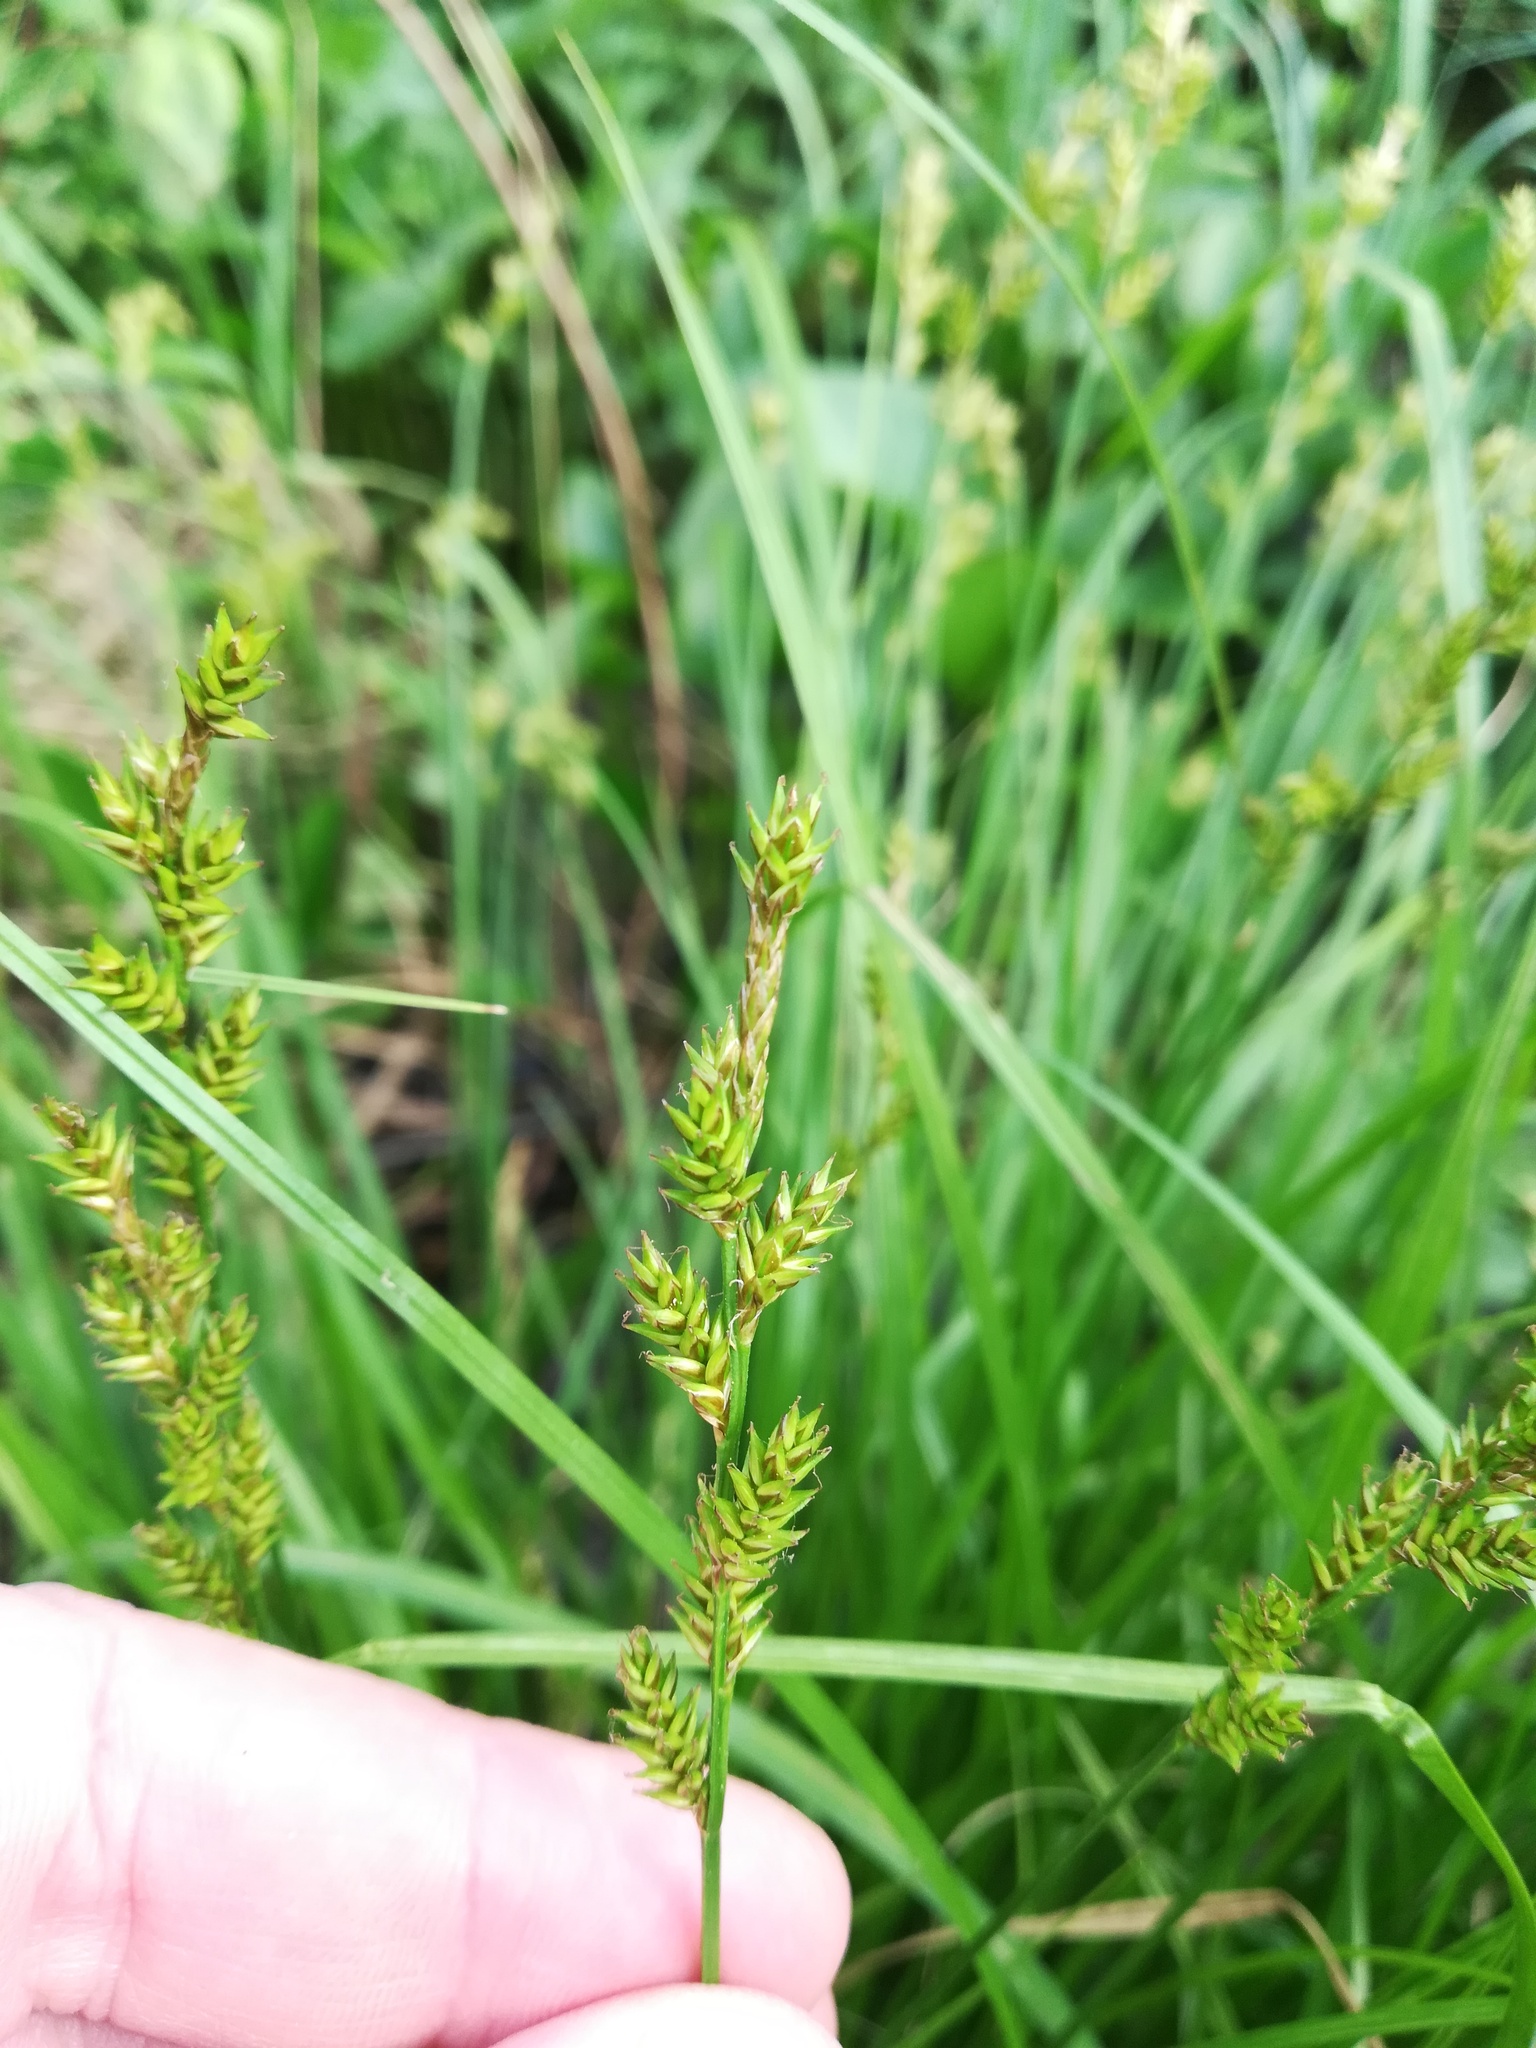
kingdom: Plantae
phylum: Tracheophyta
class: Liliopsida
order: Poales
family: Cyperaceae
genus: Carex
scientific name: Carex elongata
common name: Elongated sedge
